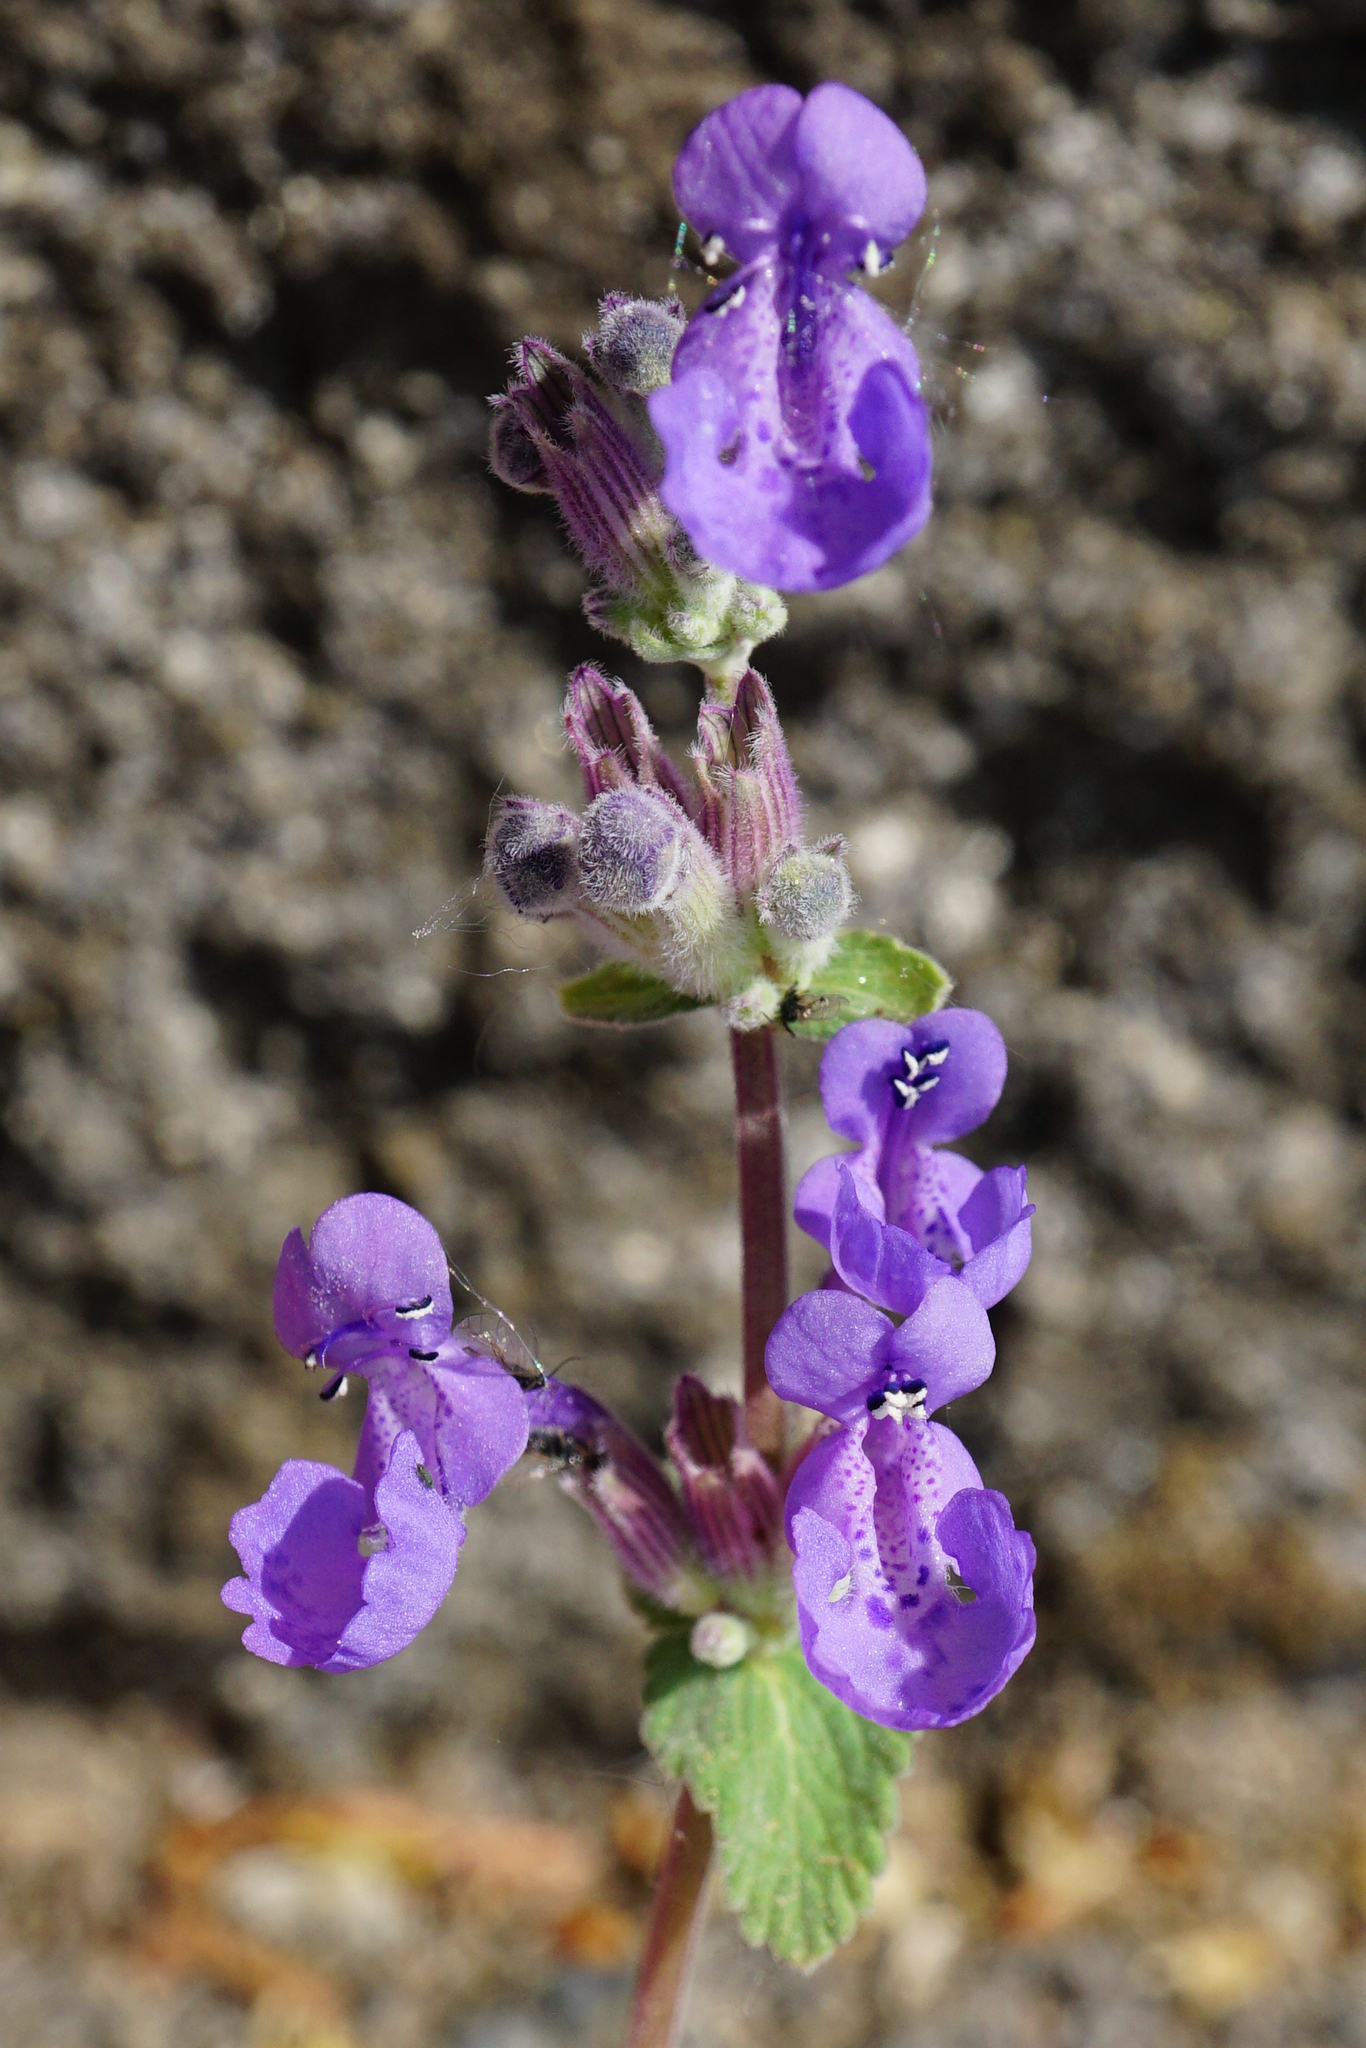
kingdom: Plantae
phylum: Tracheophyta
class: Magnoliopsida
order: Lamiales
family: Lamiaceae
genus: Nepeta
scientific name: Nepeta racemosa
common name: Raceme catnip
